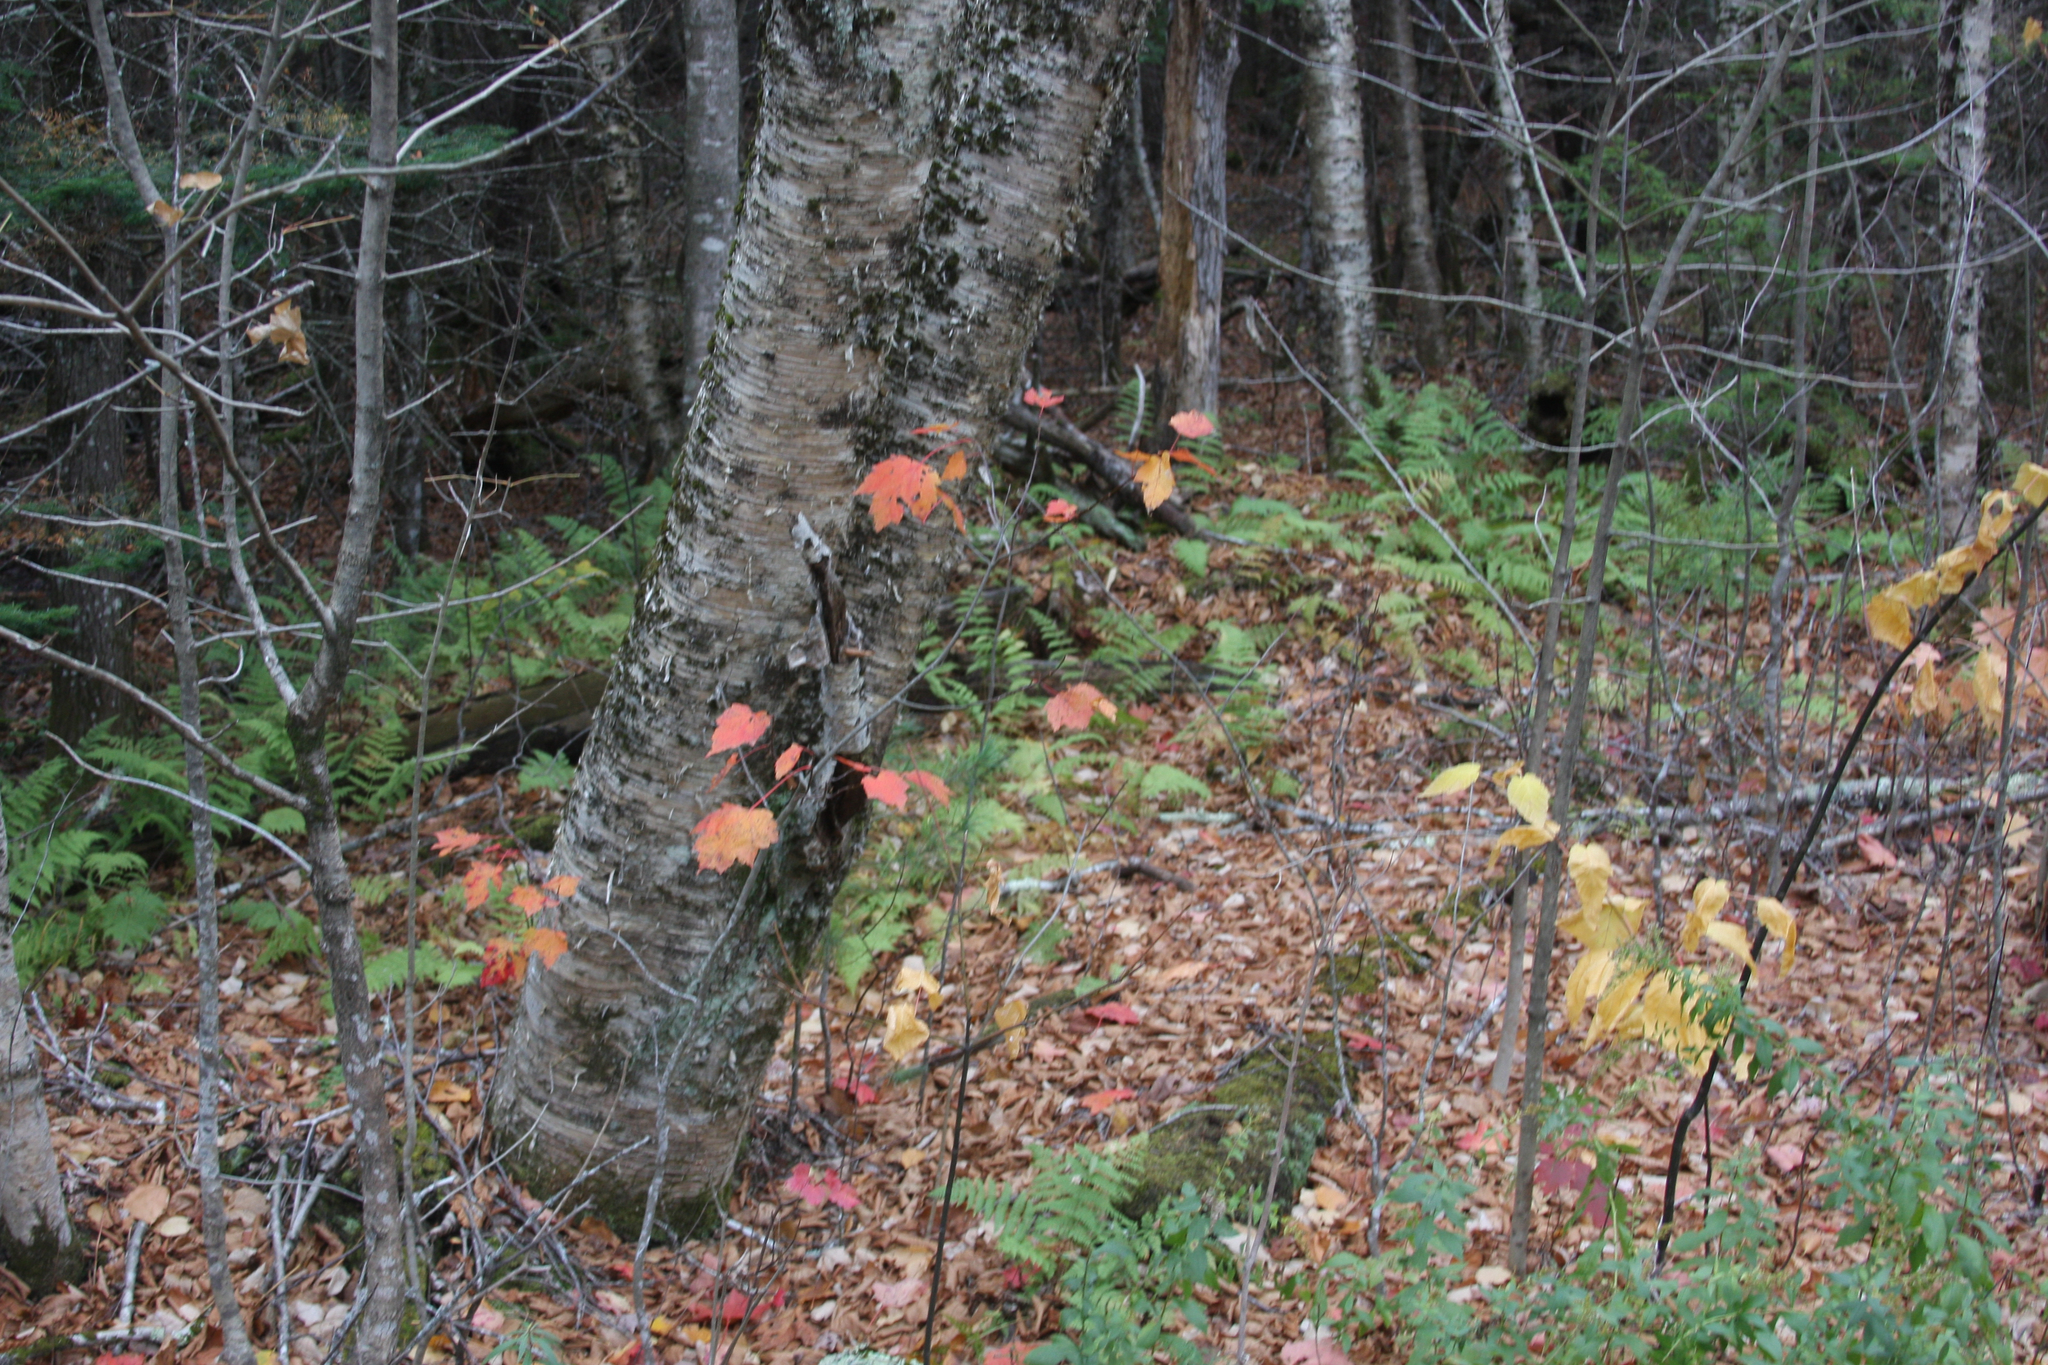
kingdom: Plantae
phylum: Tracheophyta
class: Magnoliopsida
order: Sapindales
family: Sapindaceae
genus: Acer
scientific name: Acer rubrum
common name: Red maple
